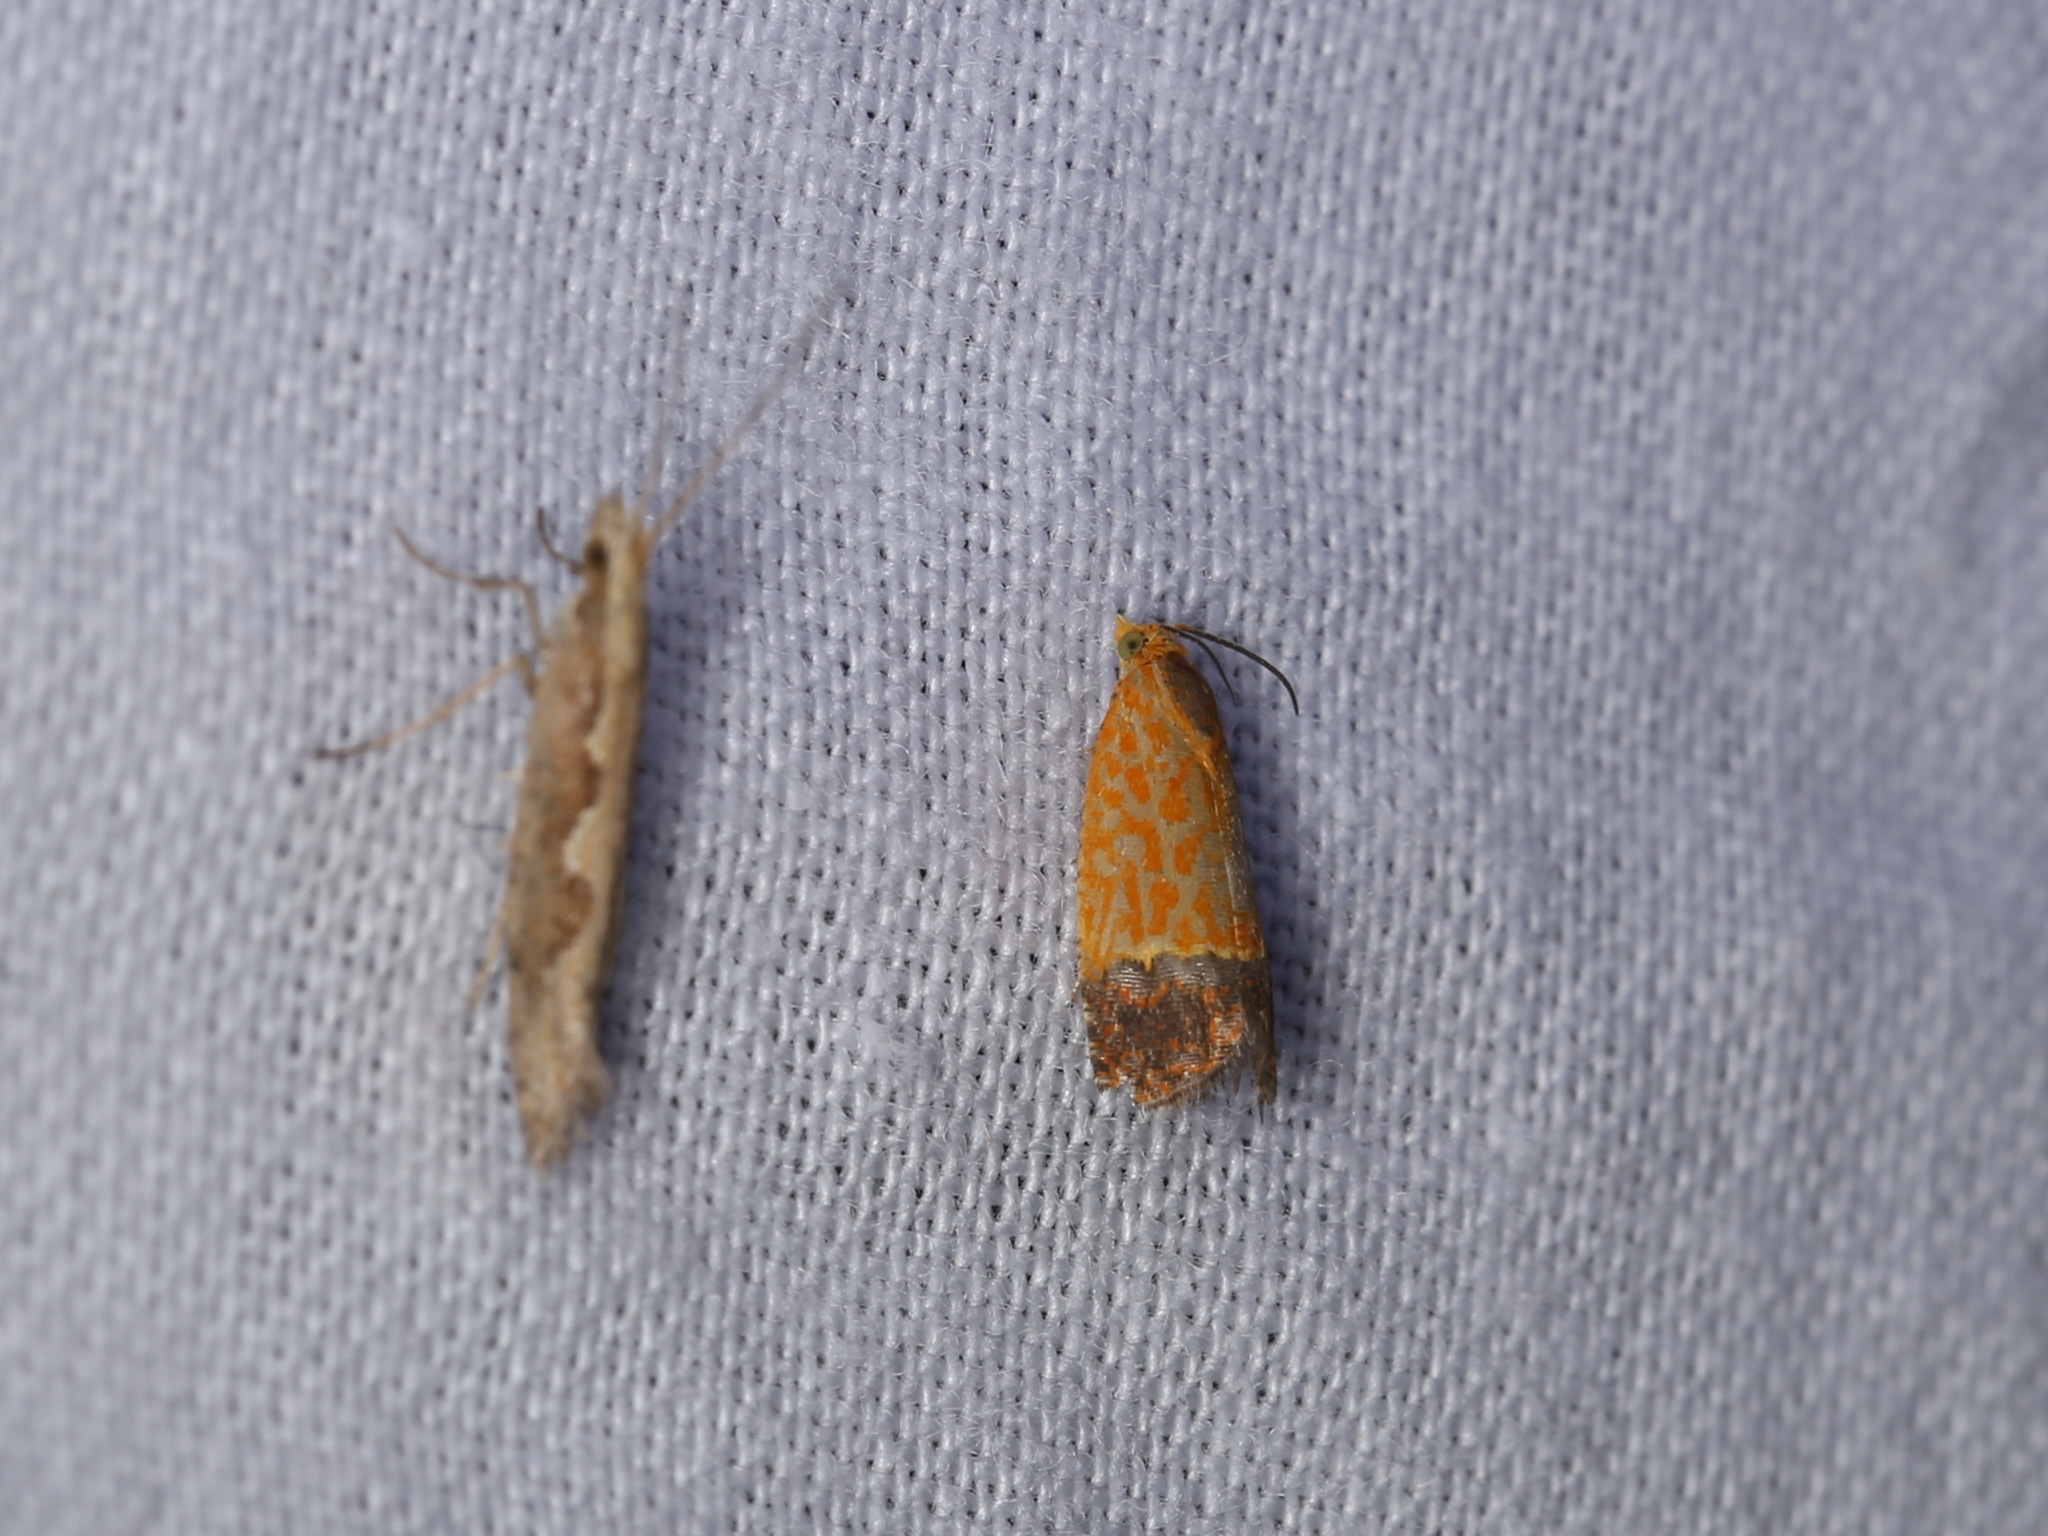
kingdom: Animalia
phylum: Arthropoda
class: Insecta
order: Lepidoptera
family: Tortricidae
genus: Loboschiza
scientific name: Loboschiza spiniforma
